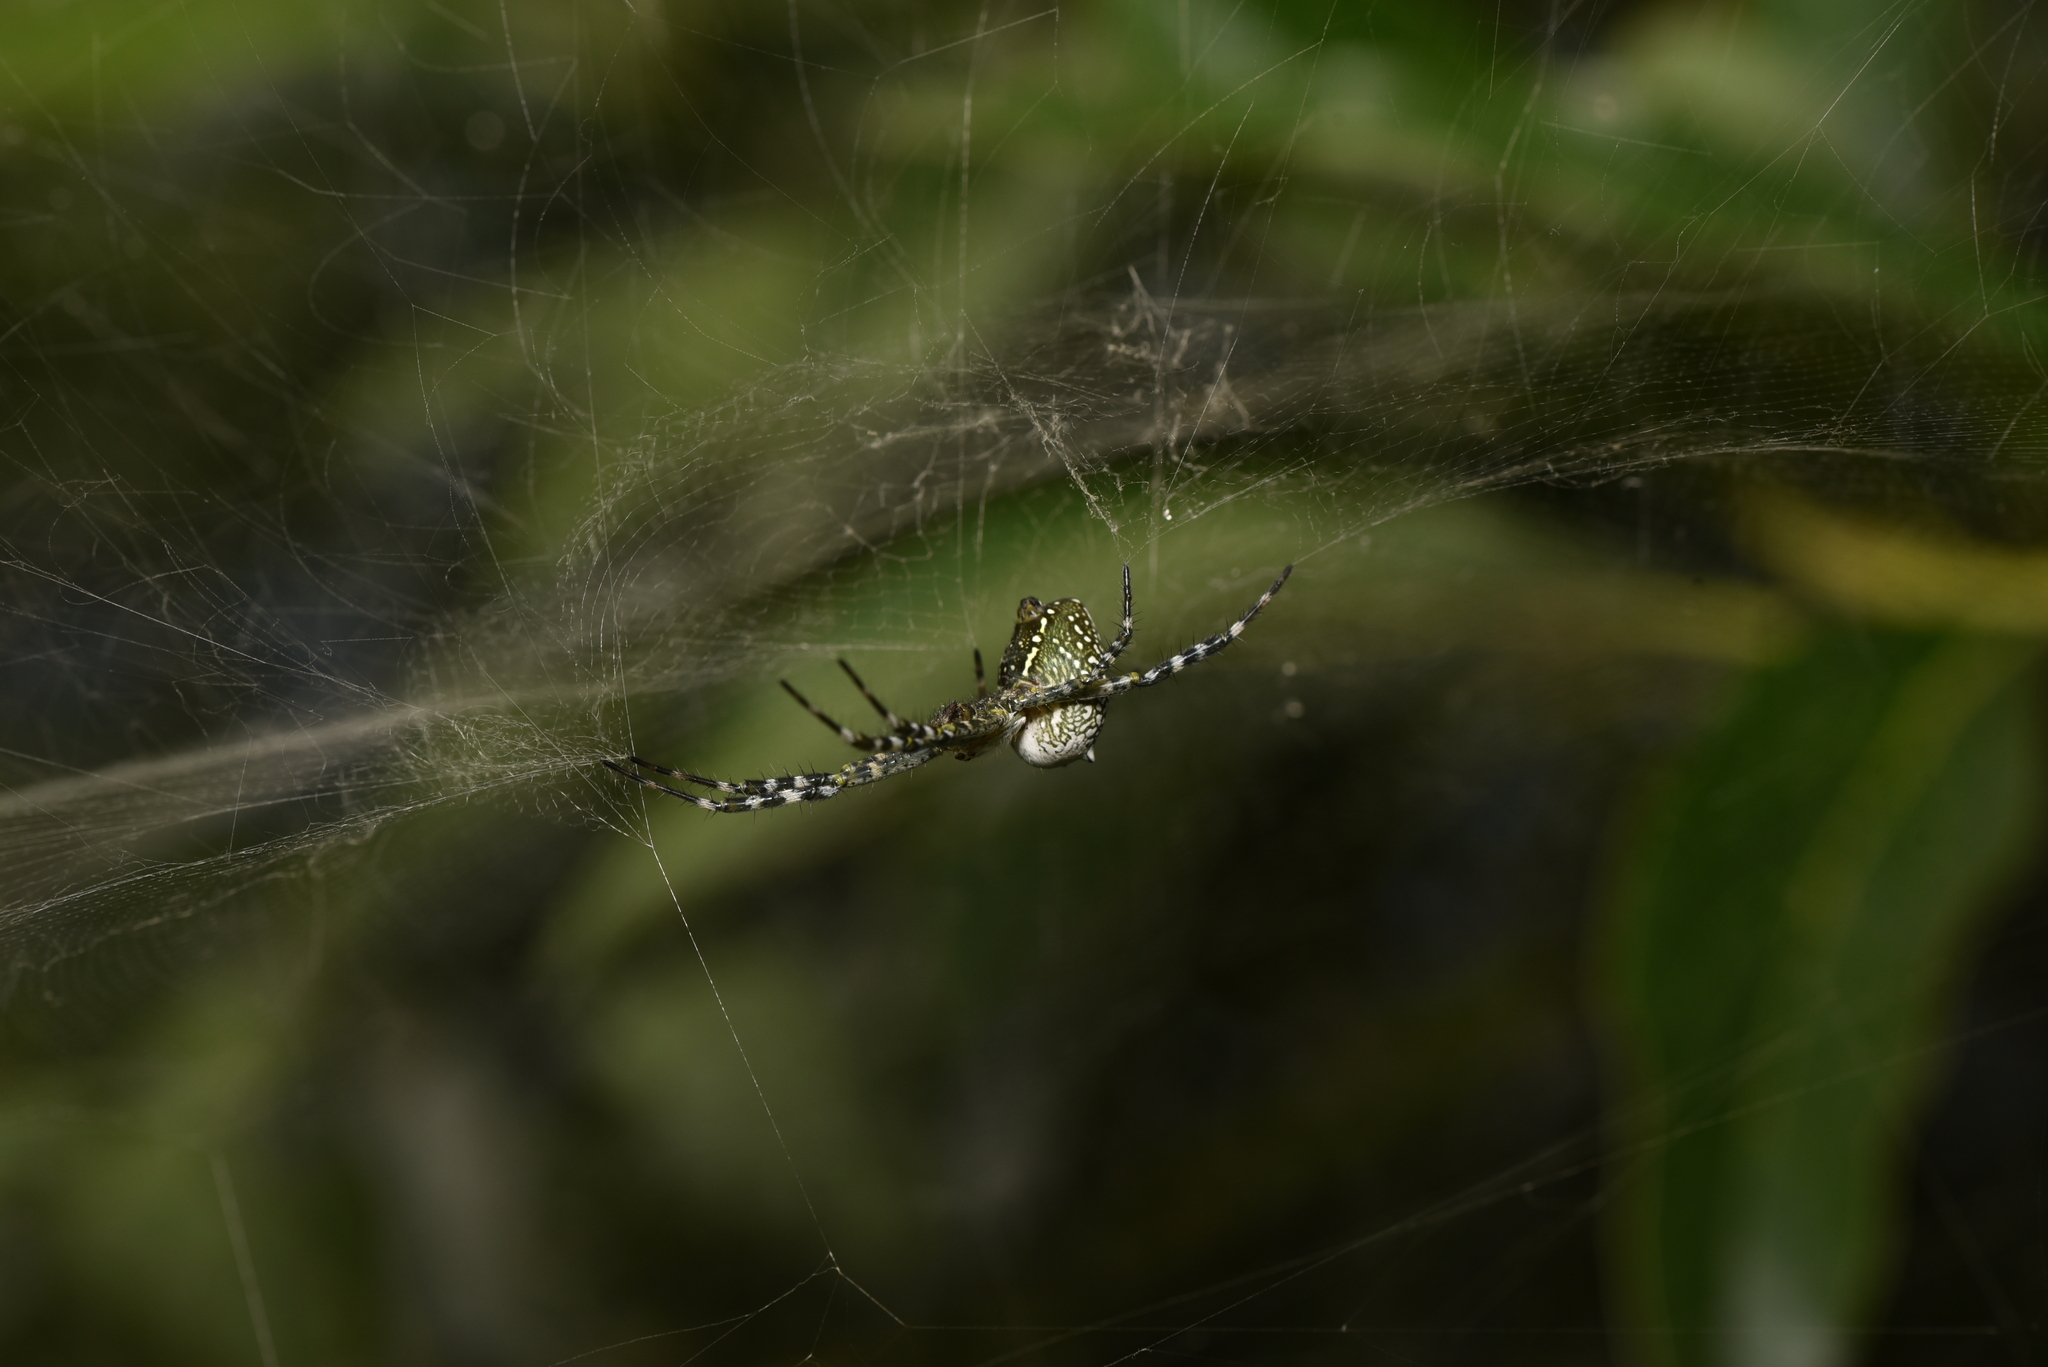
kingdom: Chromista
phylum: Ochrophyta
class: Dictyochophyceae
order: Pedinellales
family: Cyrtophoraceae
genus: Cyrtophora
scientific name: Cyrtophora moluccensis
